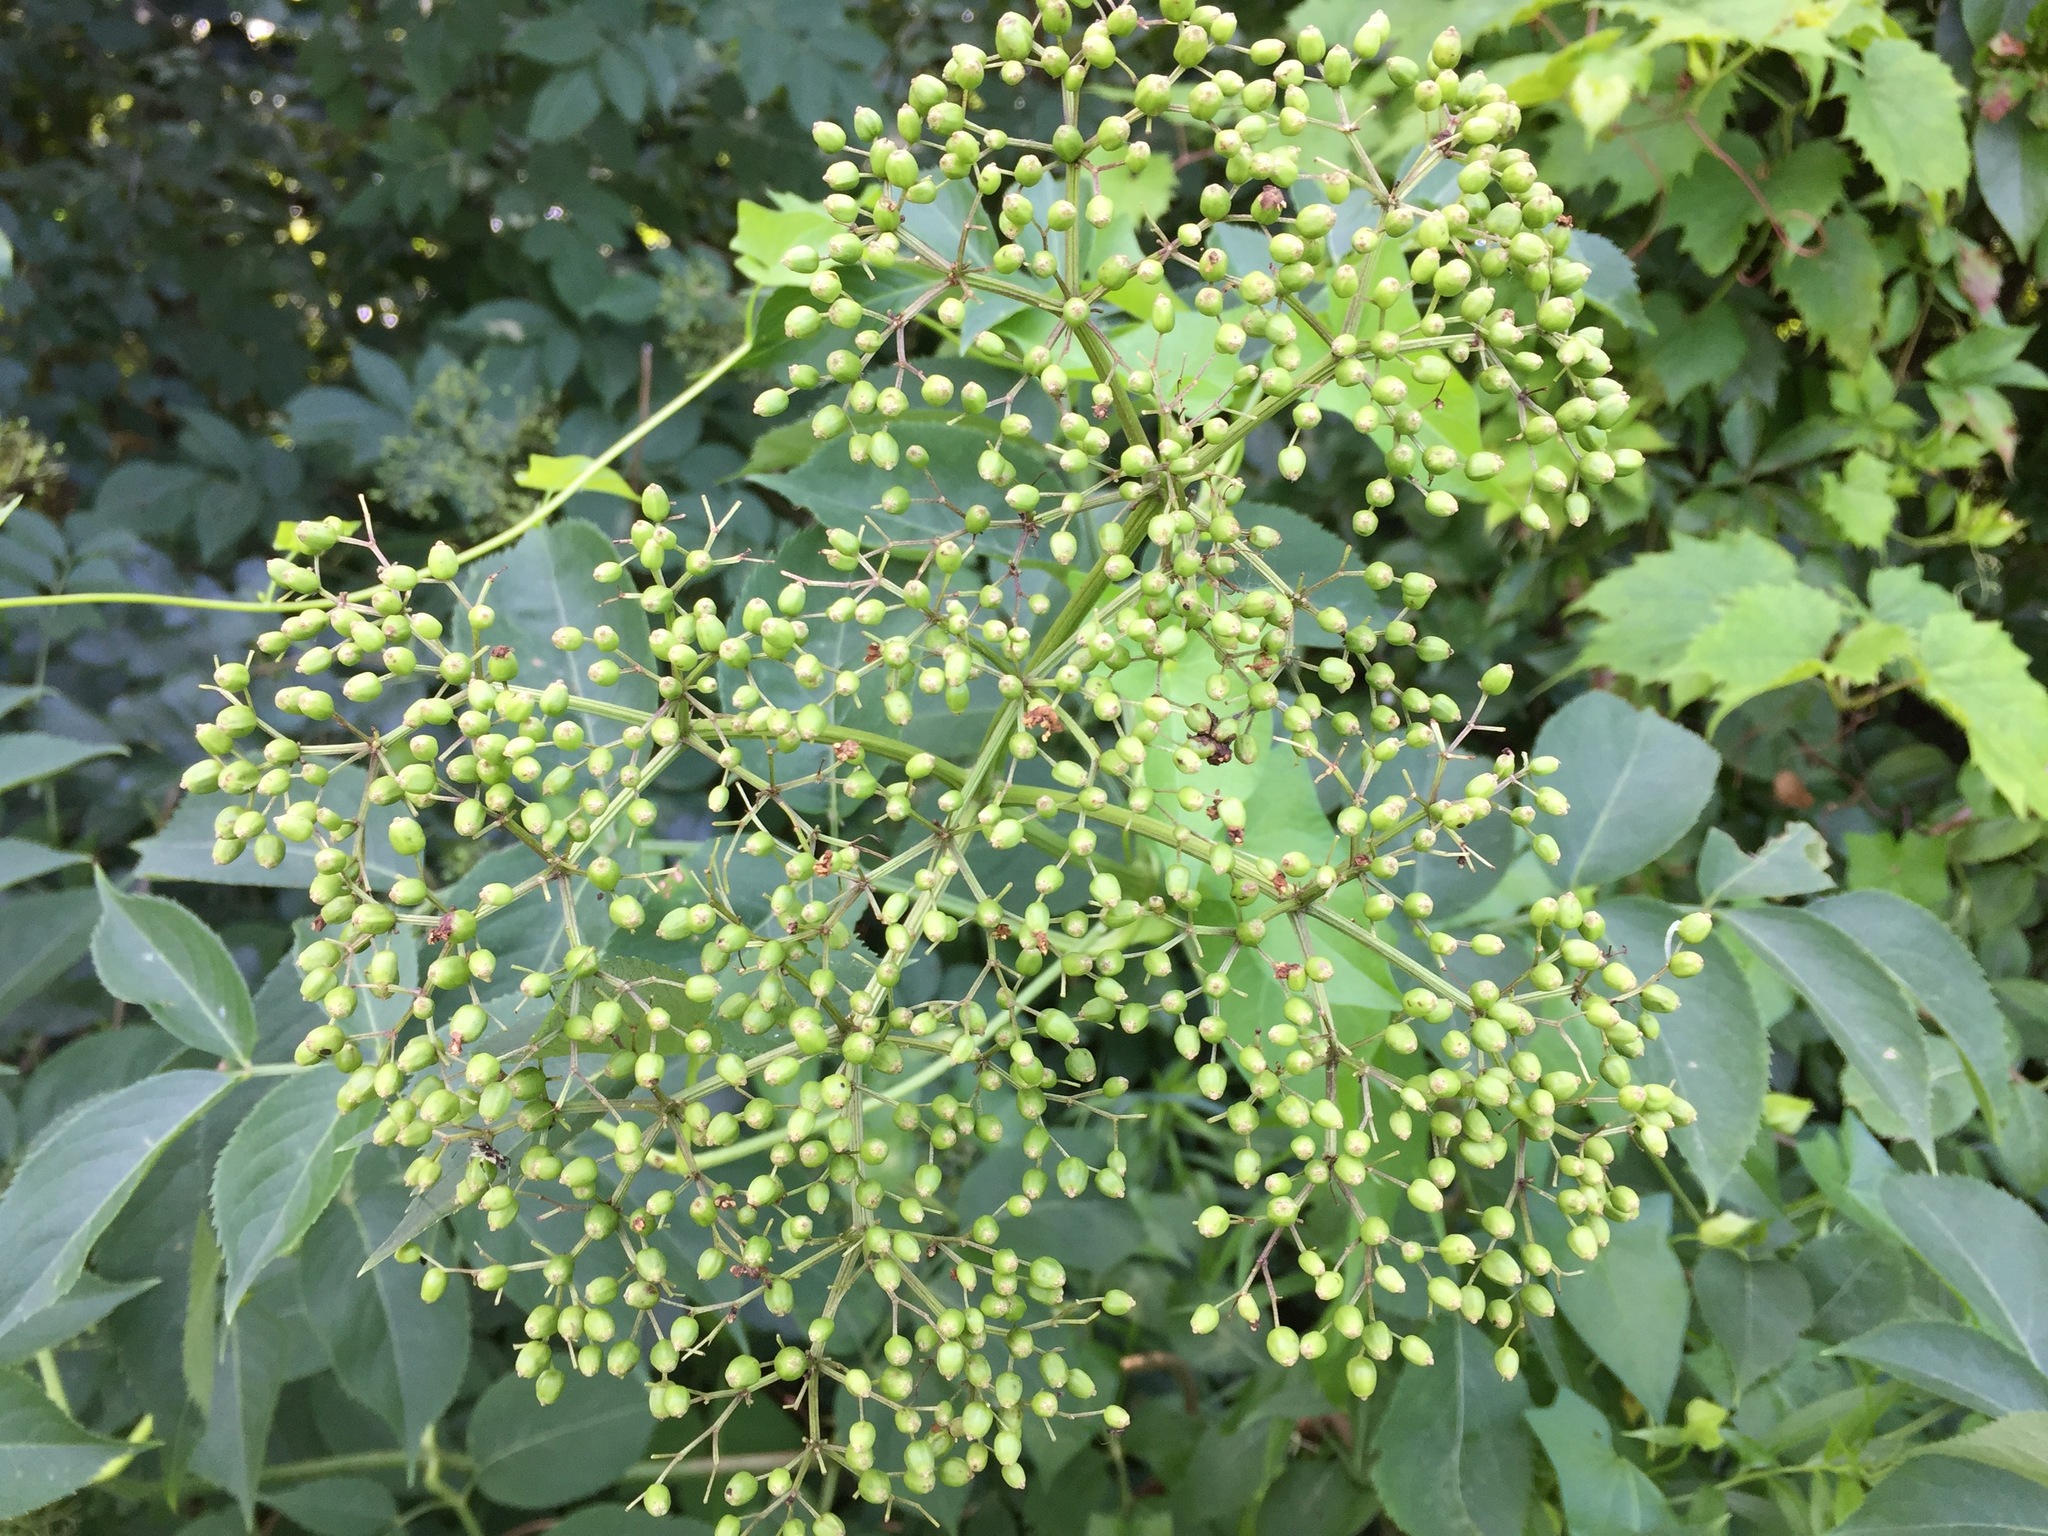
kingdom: Plantae
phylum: Tracheophyta
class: Magnoliopsida
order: Dipsacales
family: Viburnaceae
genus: Sambucus
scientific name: Sambucus canadensis
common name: American elder
